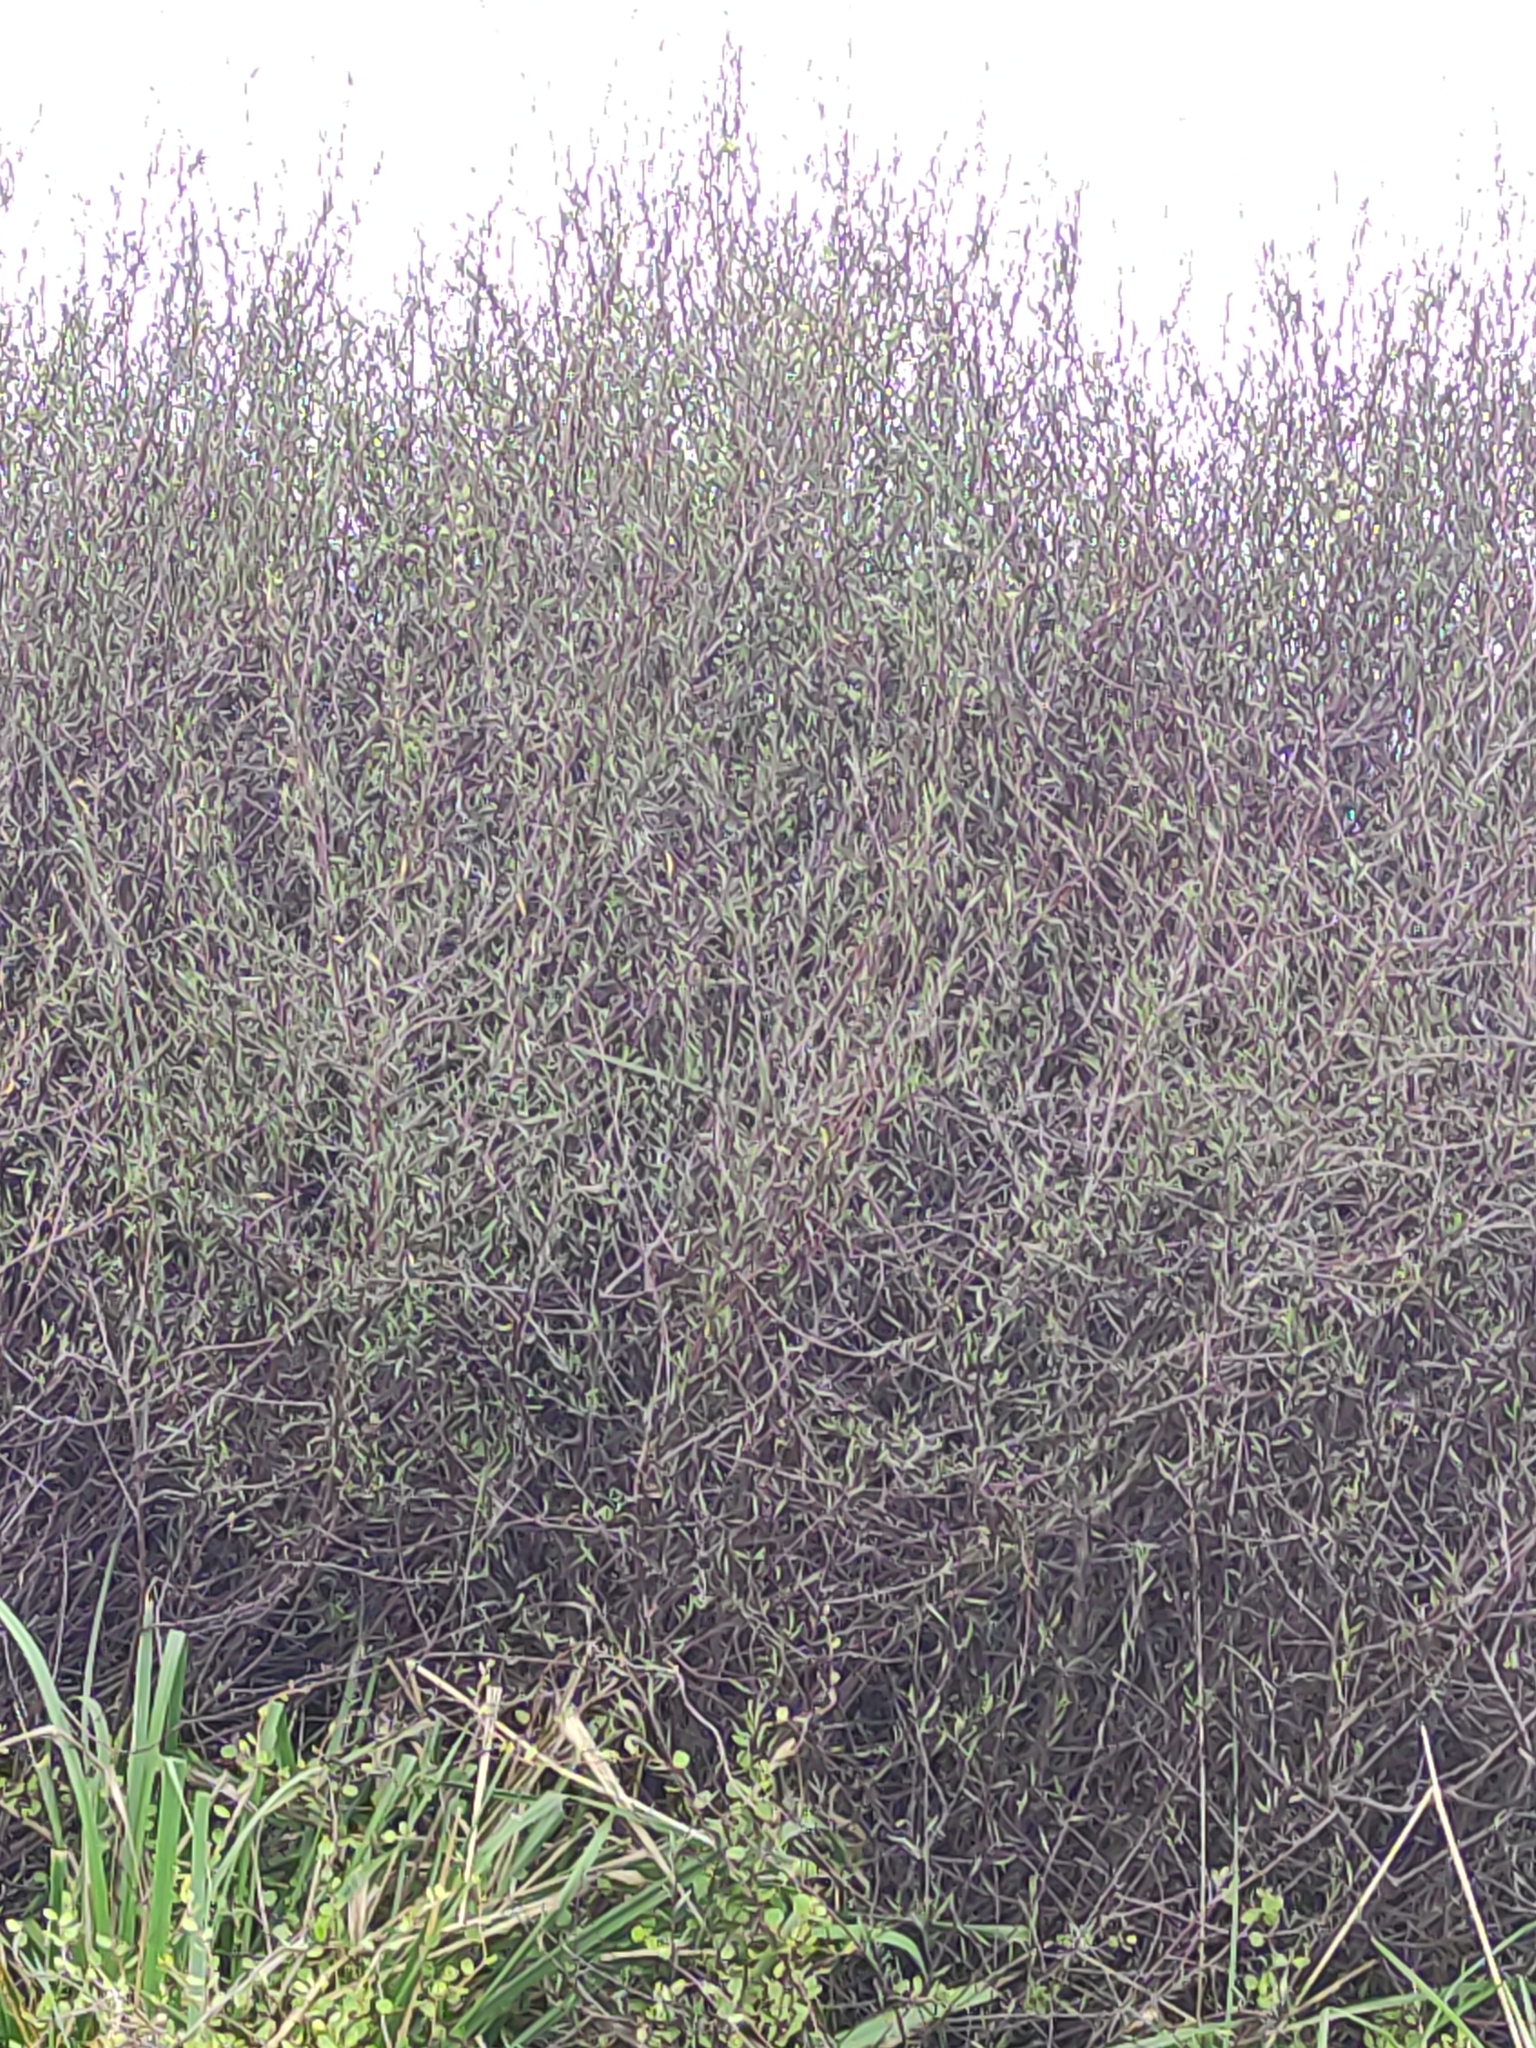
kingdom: Plantae
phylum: Tracheophyta
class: Magnoliopsida
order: Malvales
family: Malvaceae
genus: Plagianthus
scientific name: Plagianthus divaricatus
